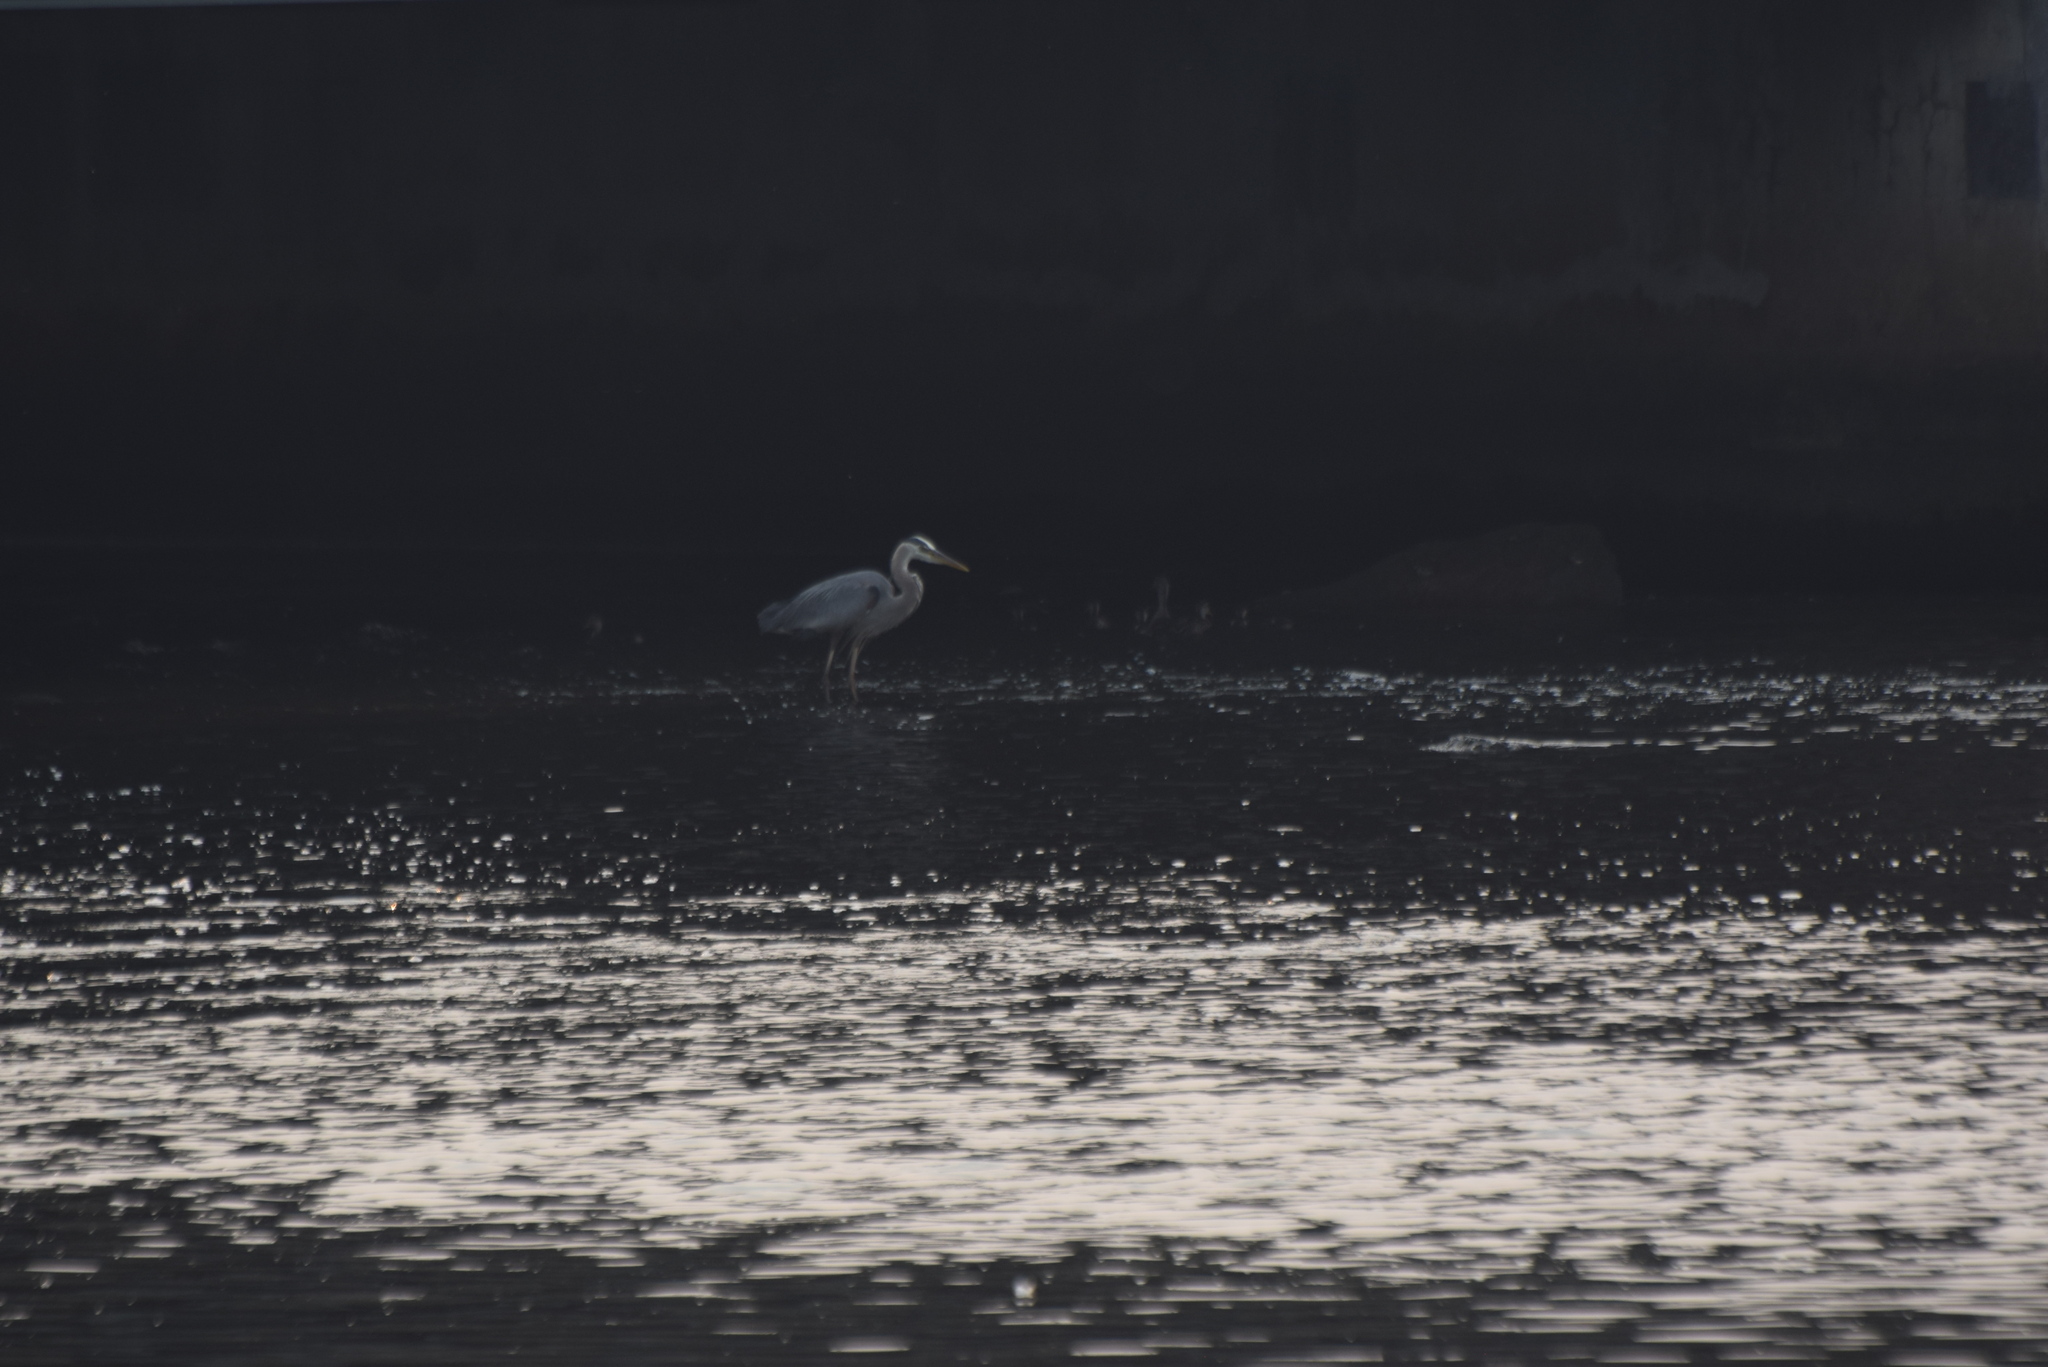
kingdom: Animalia
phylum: Chordata
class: Aves
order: Pelecaniformes
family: Ardeidae
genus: Ardea
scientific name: Ardea herodias
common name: Great blue heron
